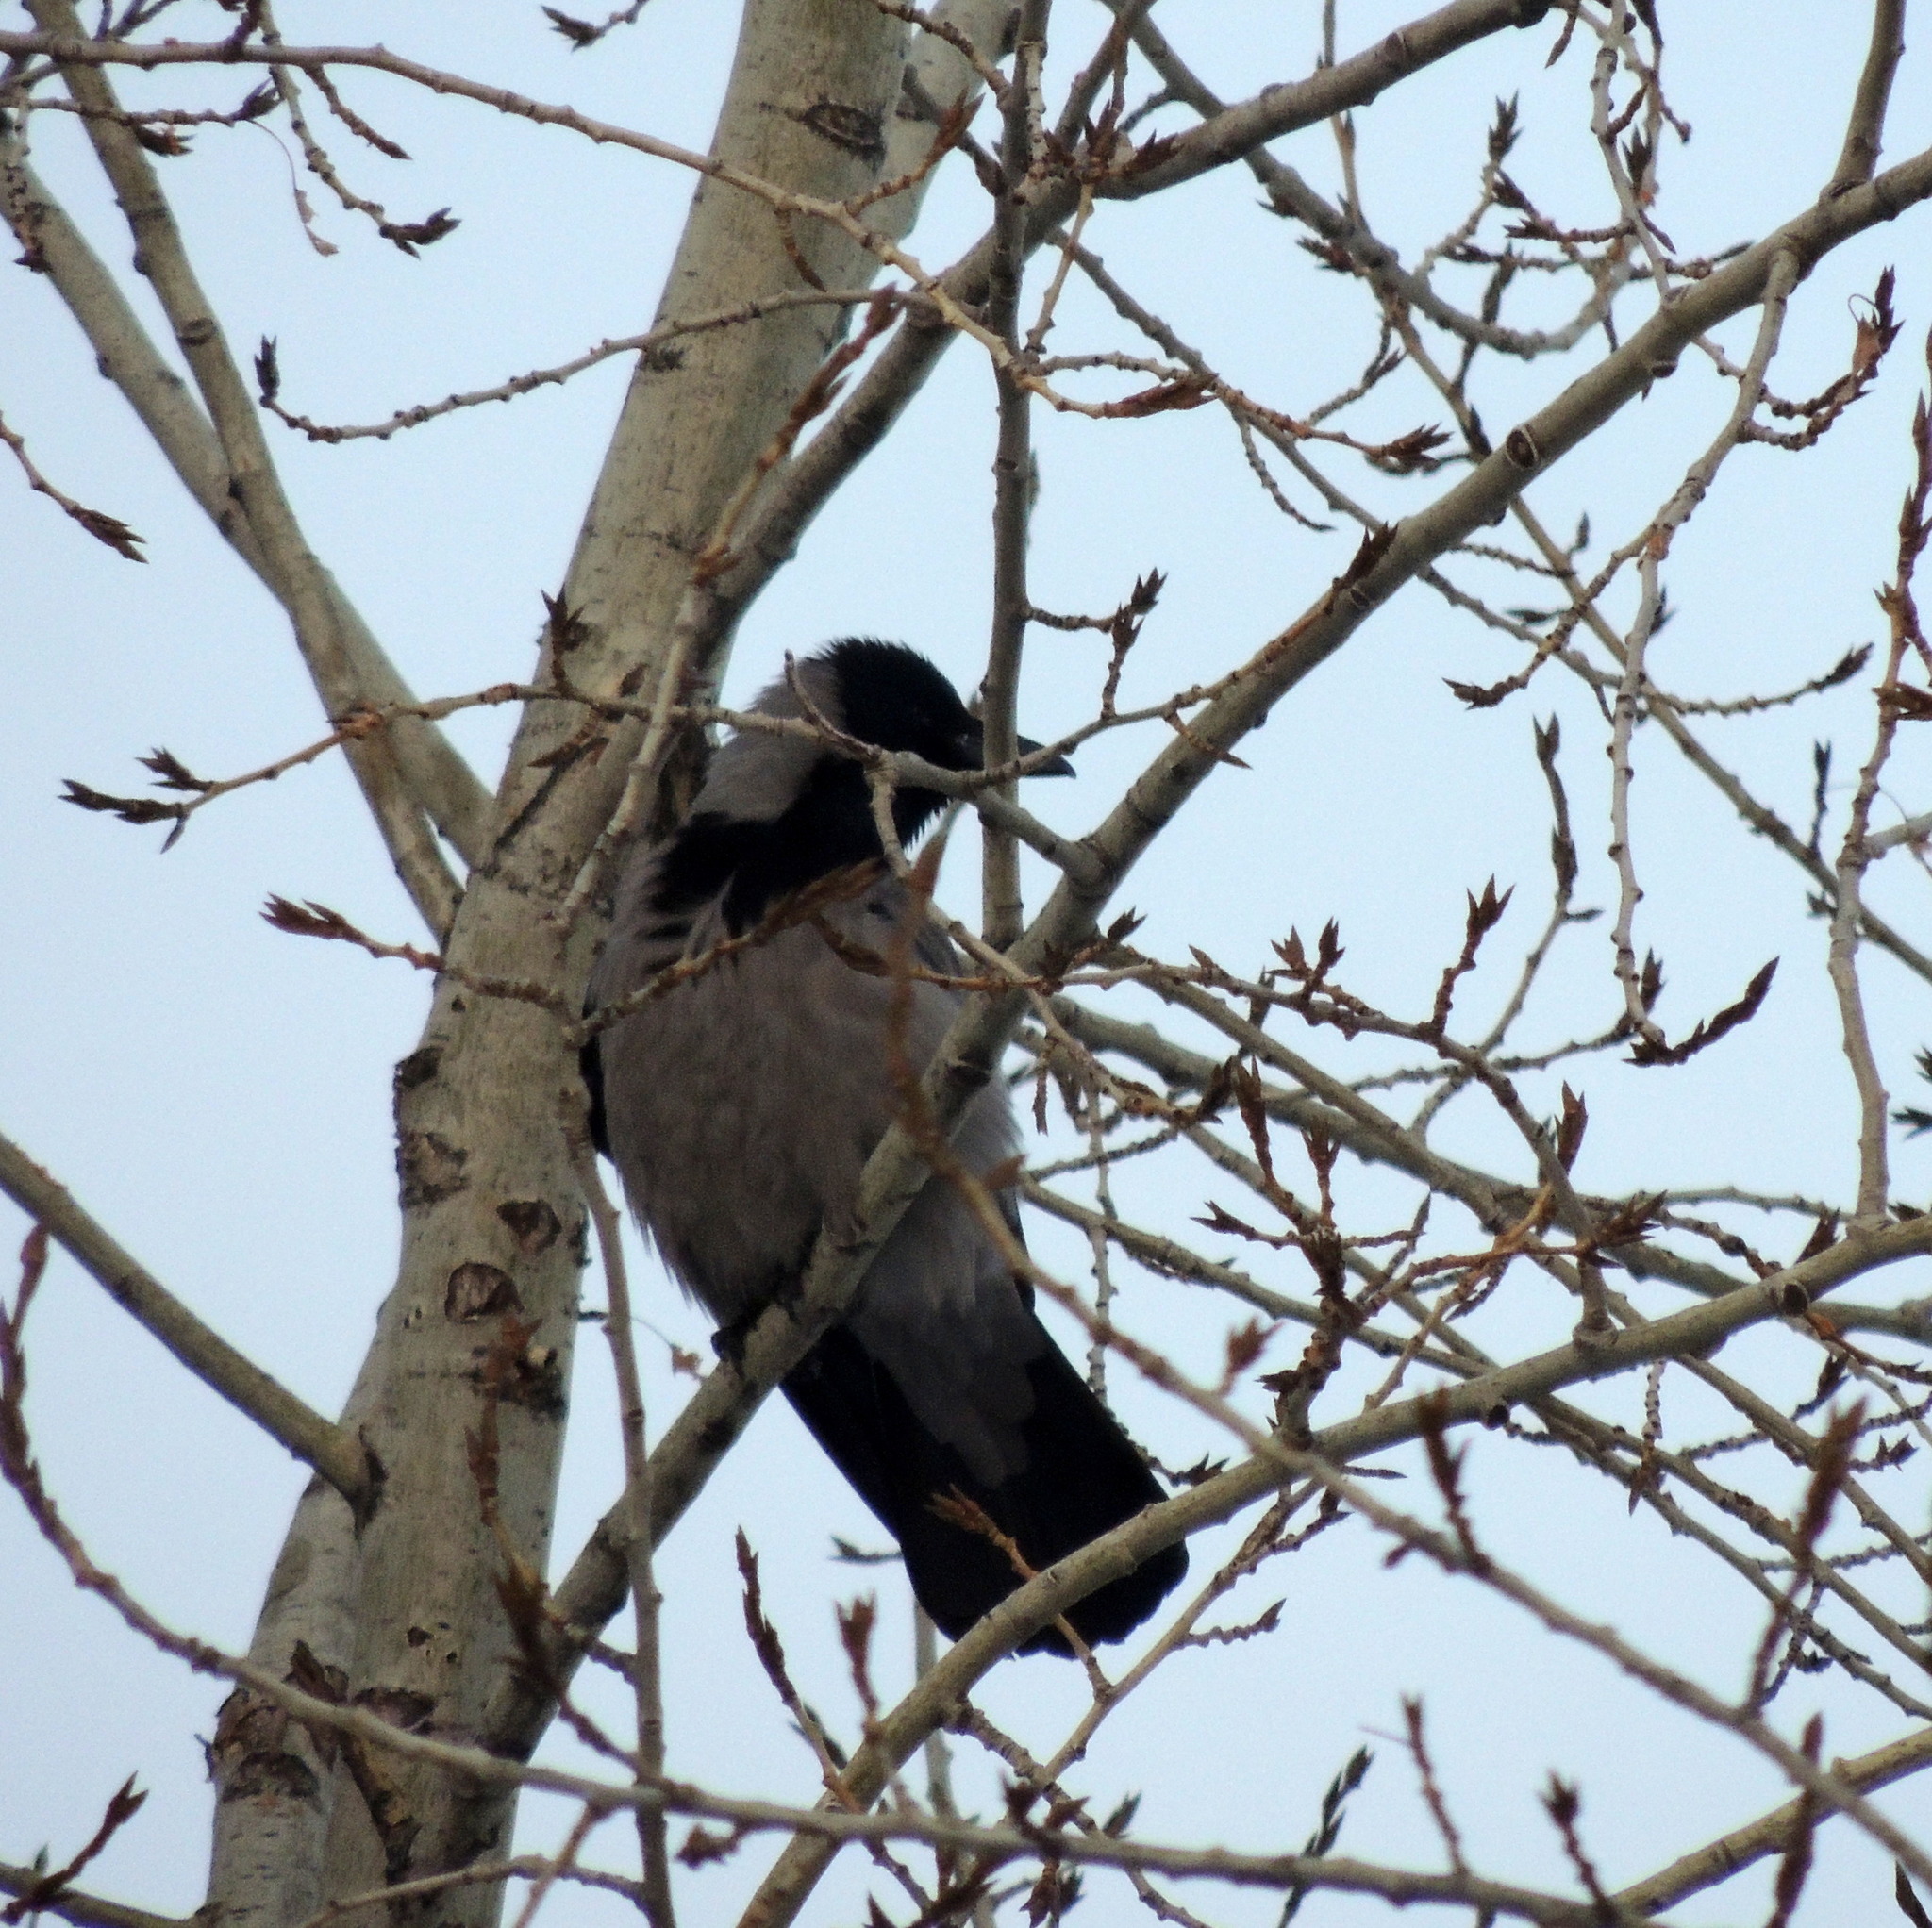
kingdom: Animalia
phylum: Chordata
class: Aves
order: Passeriformes
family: Corvidae
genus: Corvus
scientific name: Corvus cornix
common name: Hooded crow
